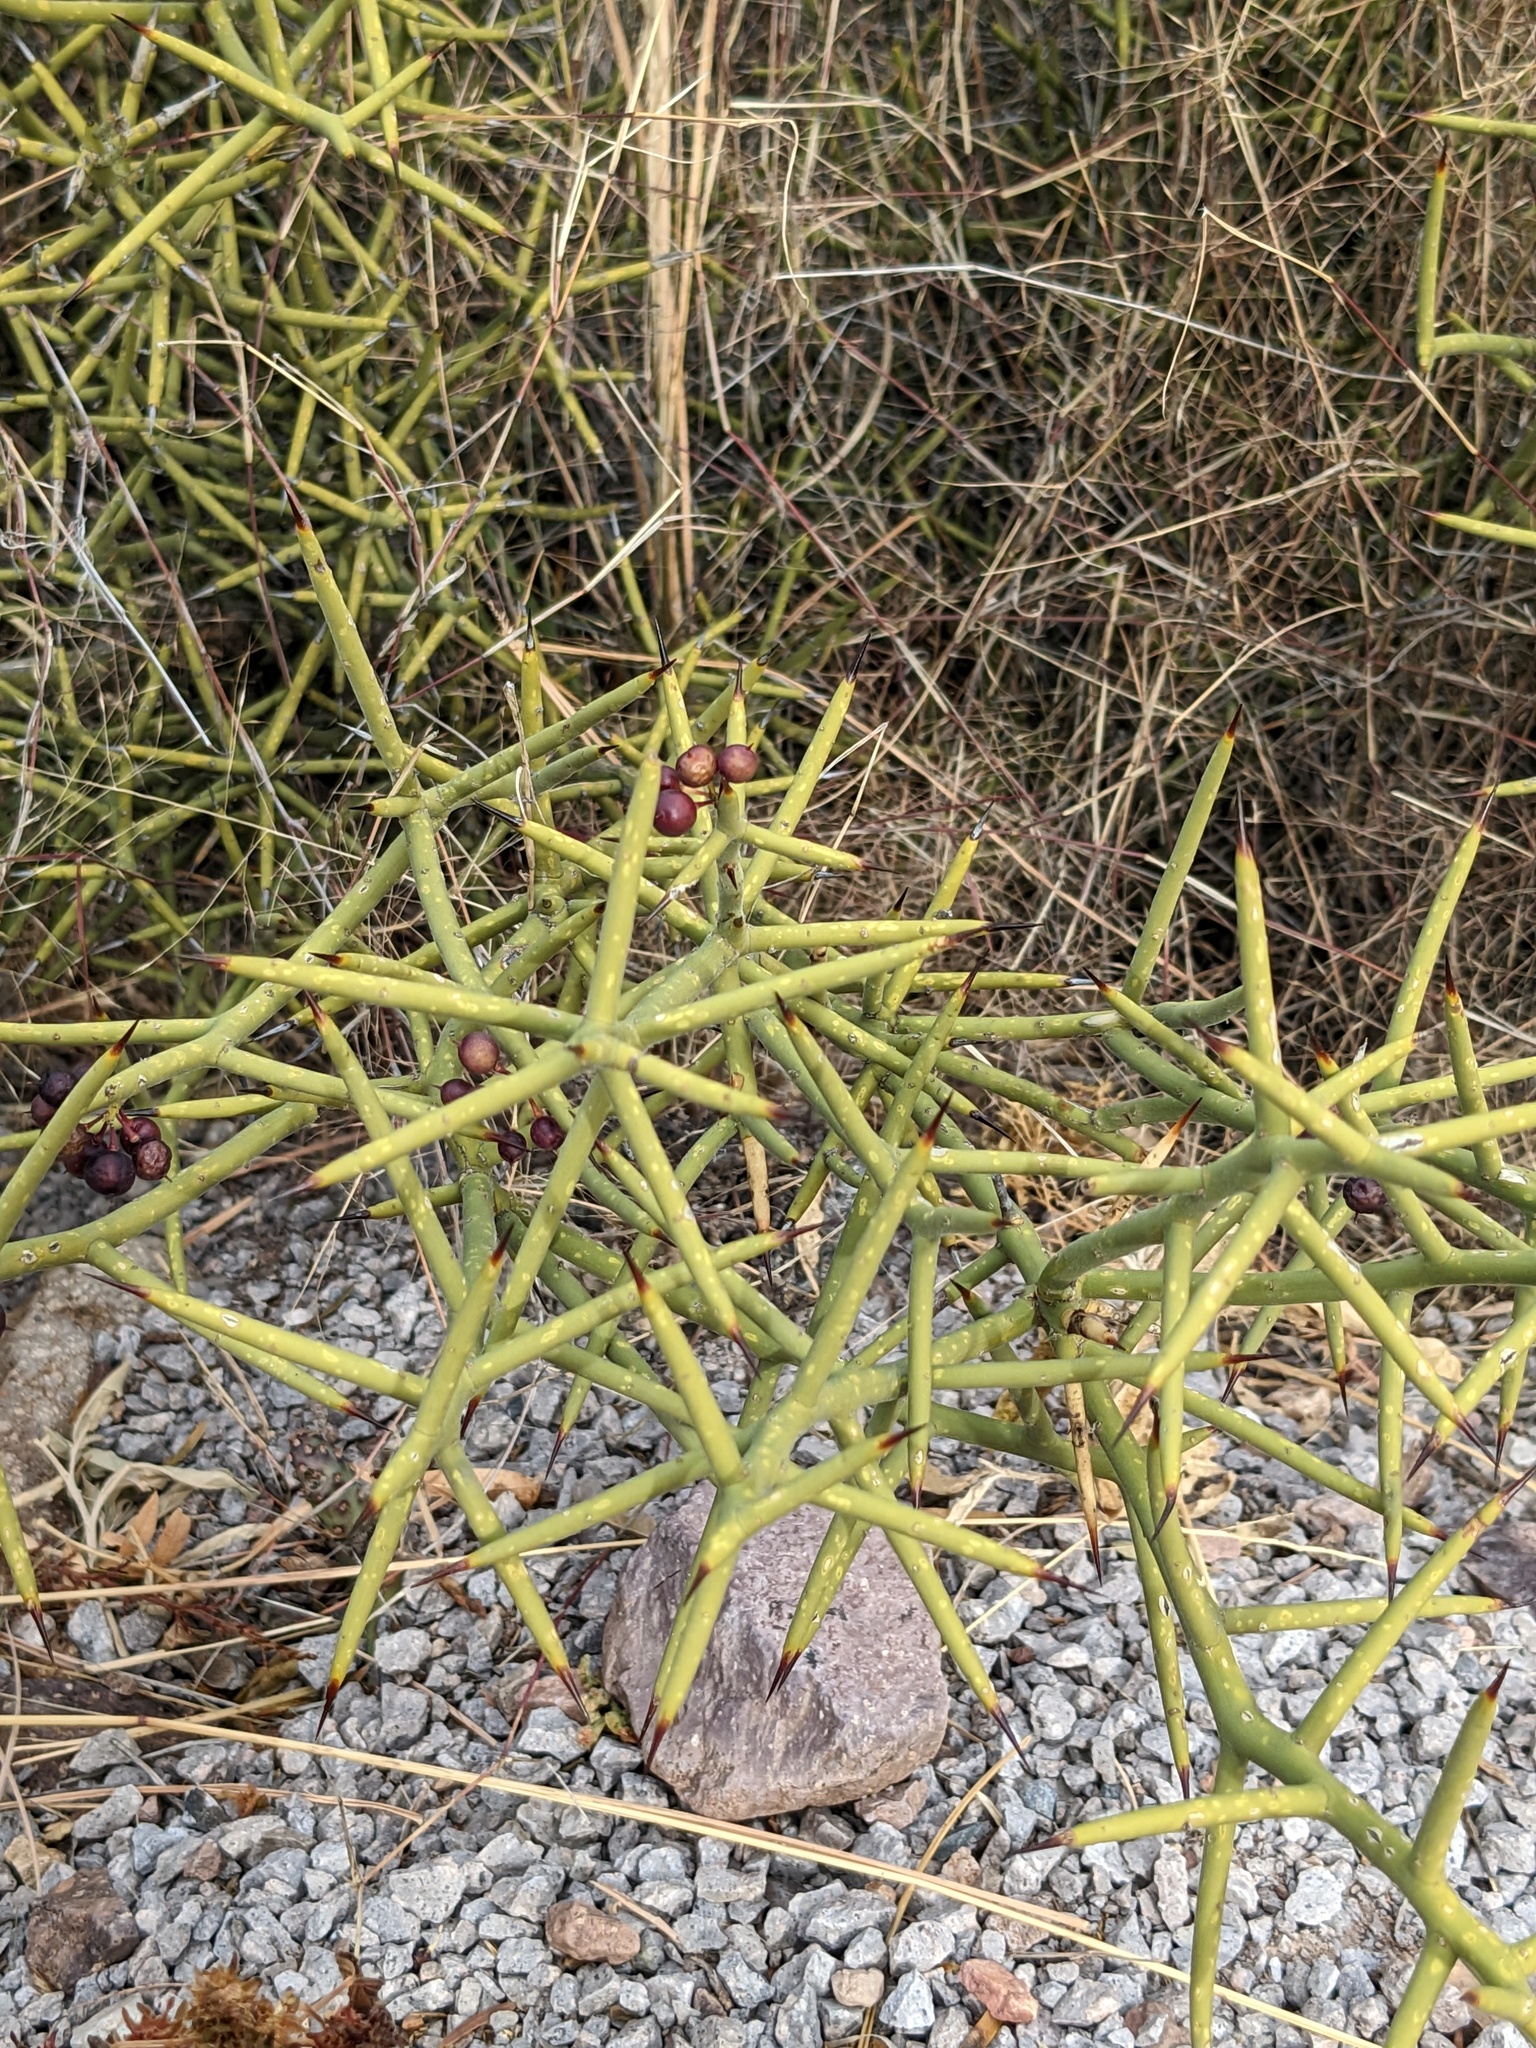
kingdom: Plantae
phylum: Tracheophyta
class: Magnoliopsida
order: Brassicales
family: Koeberliniaceae
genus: Koeberlinia
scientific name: Koeberlinia spinosa
